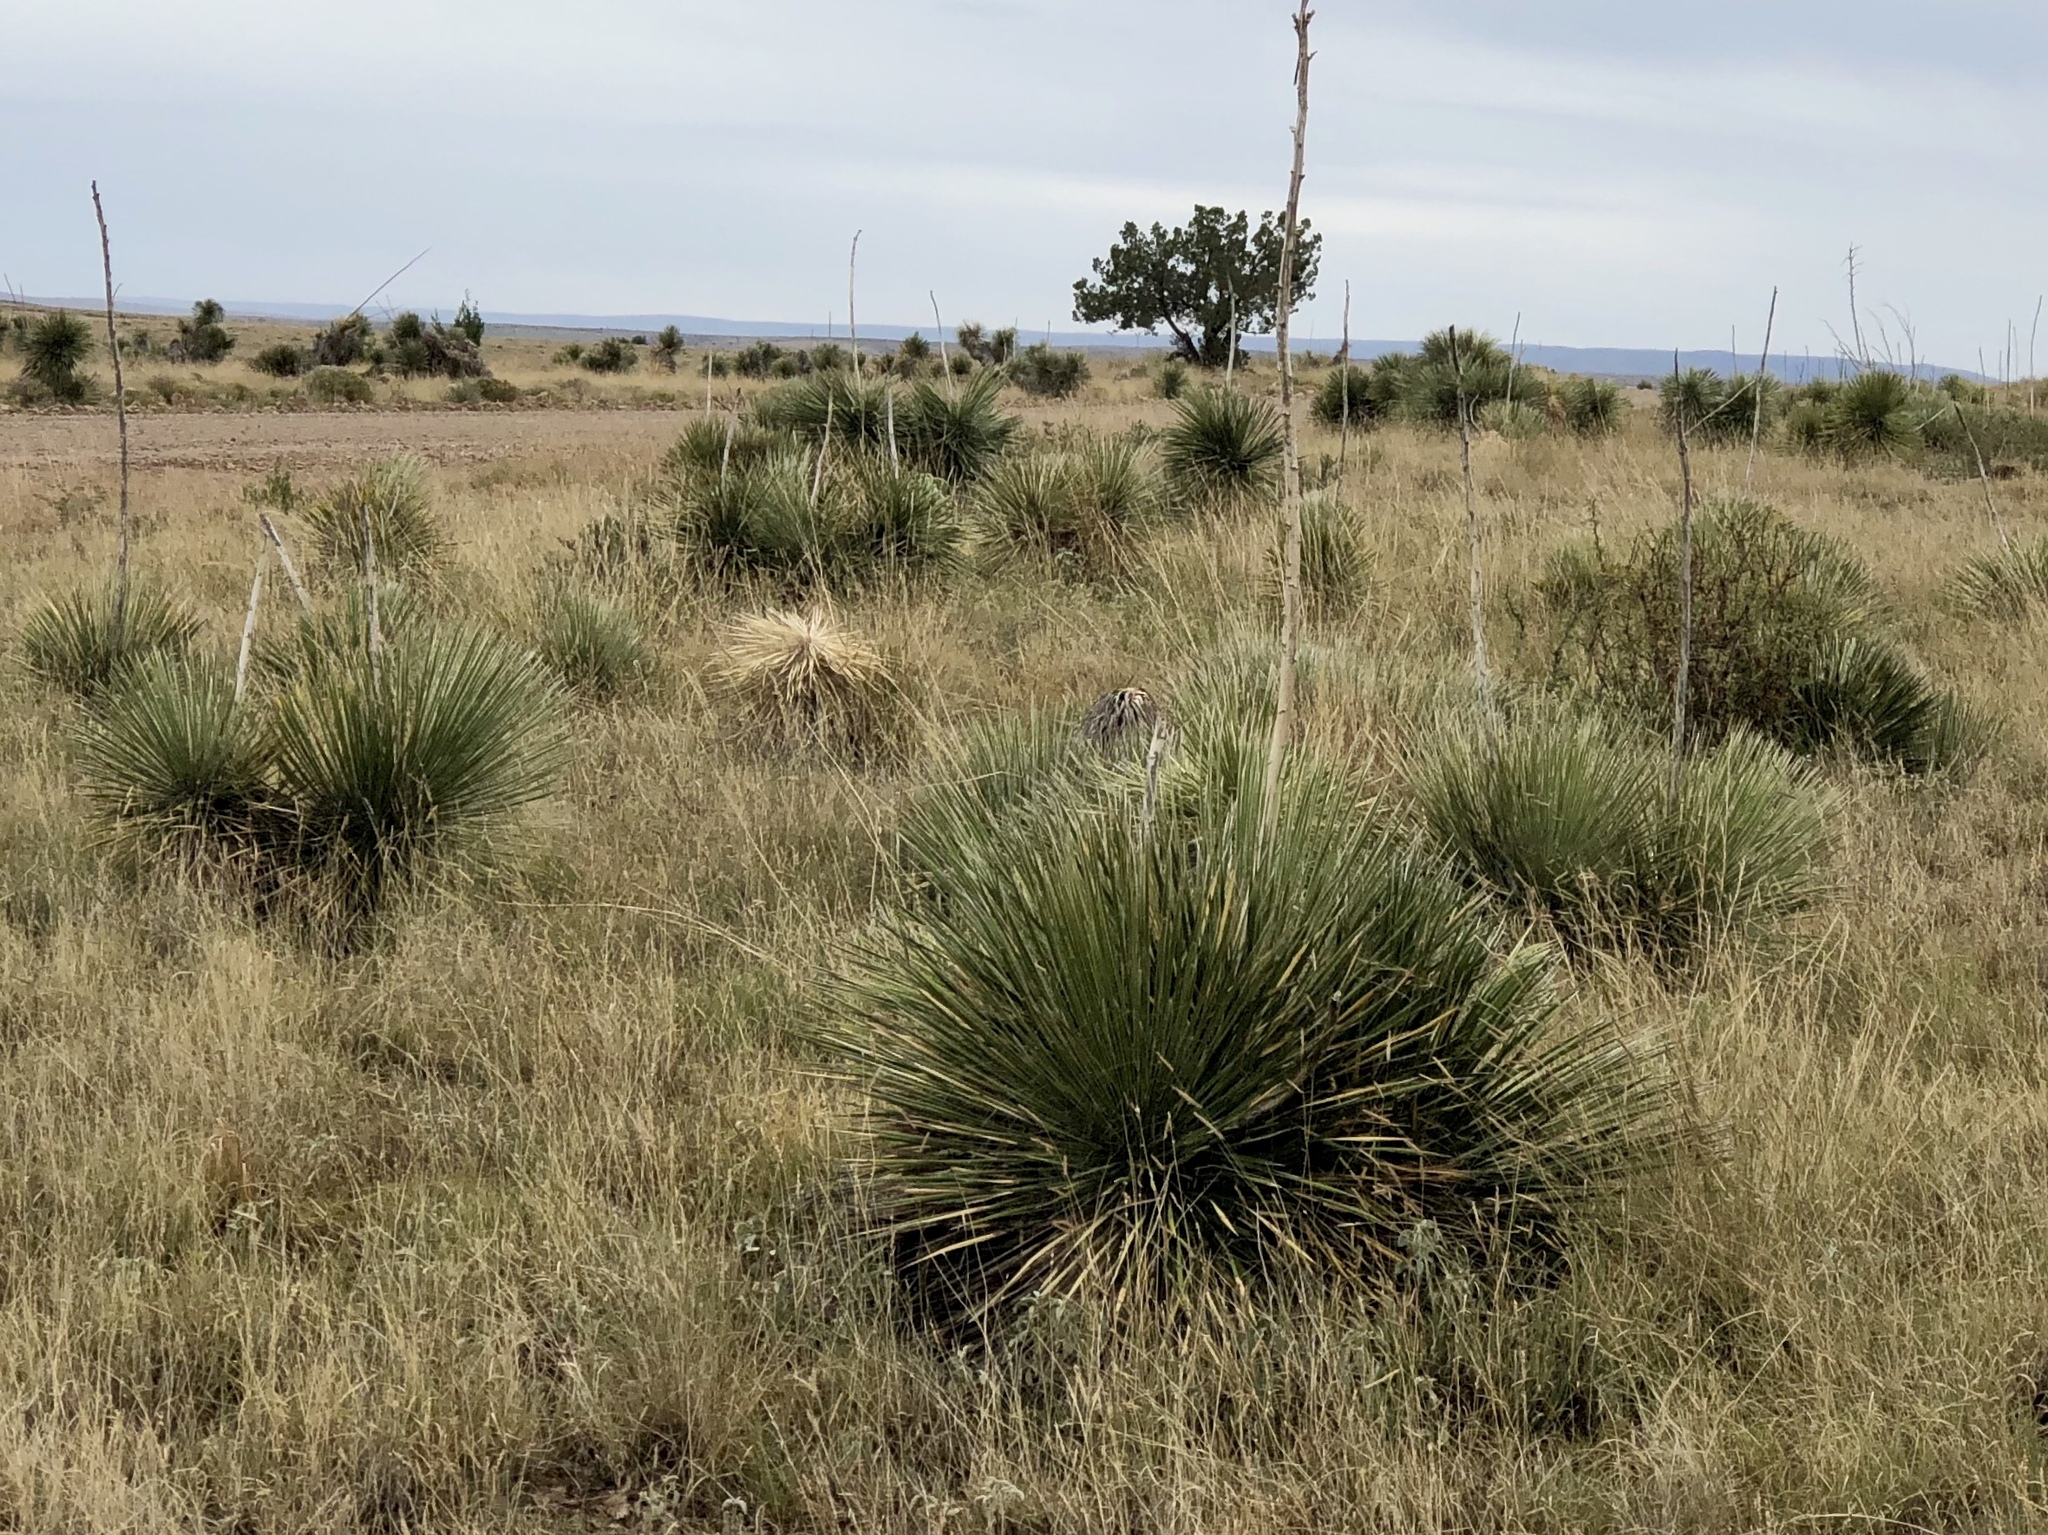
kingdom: Plantae
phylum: Tracheophyta
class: Liliopsida
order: Asparagales
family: Asparagaceae
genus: Yucca
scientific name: Yucca elata
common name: Palmella
